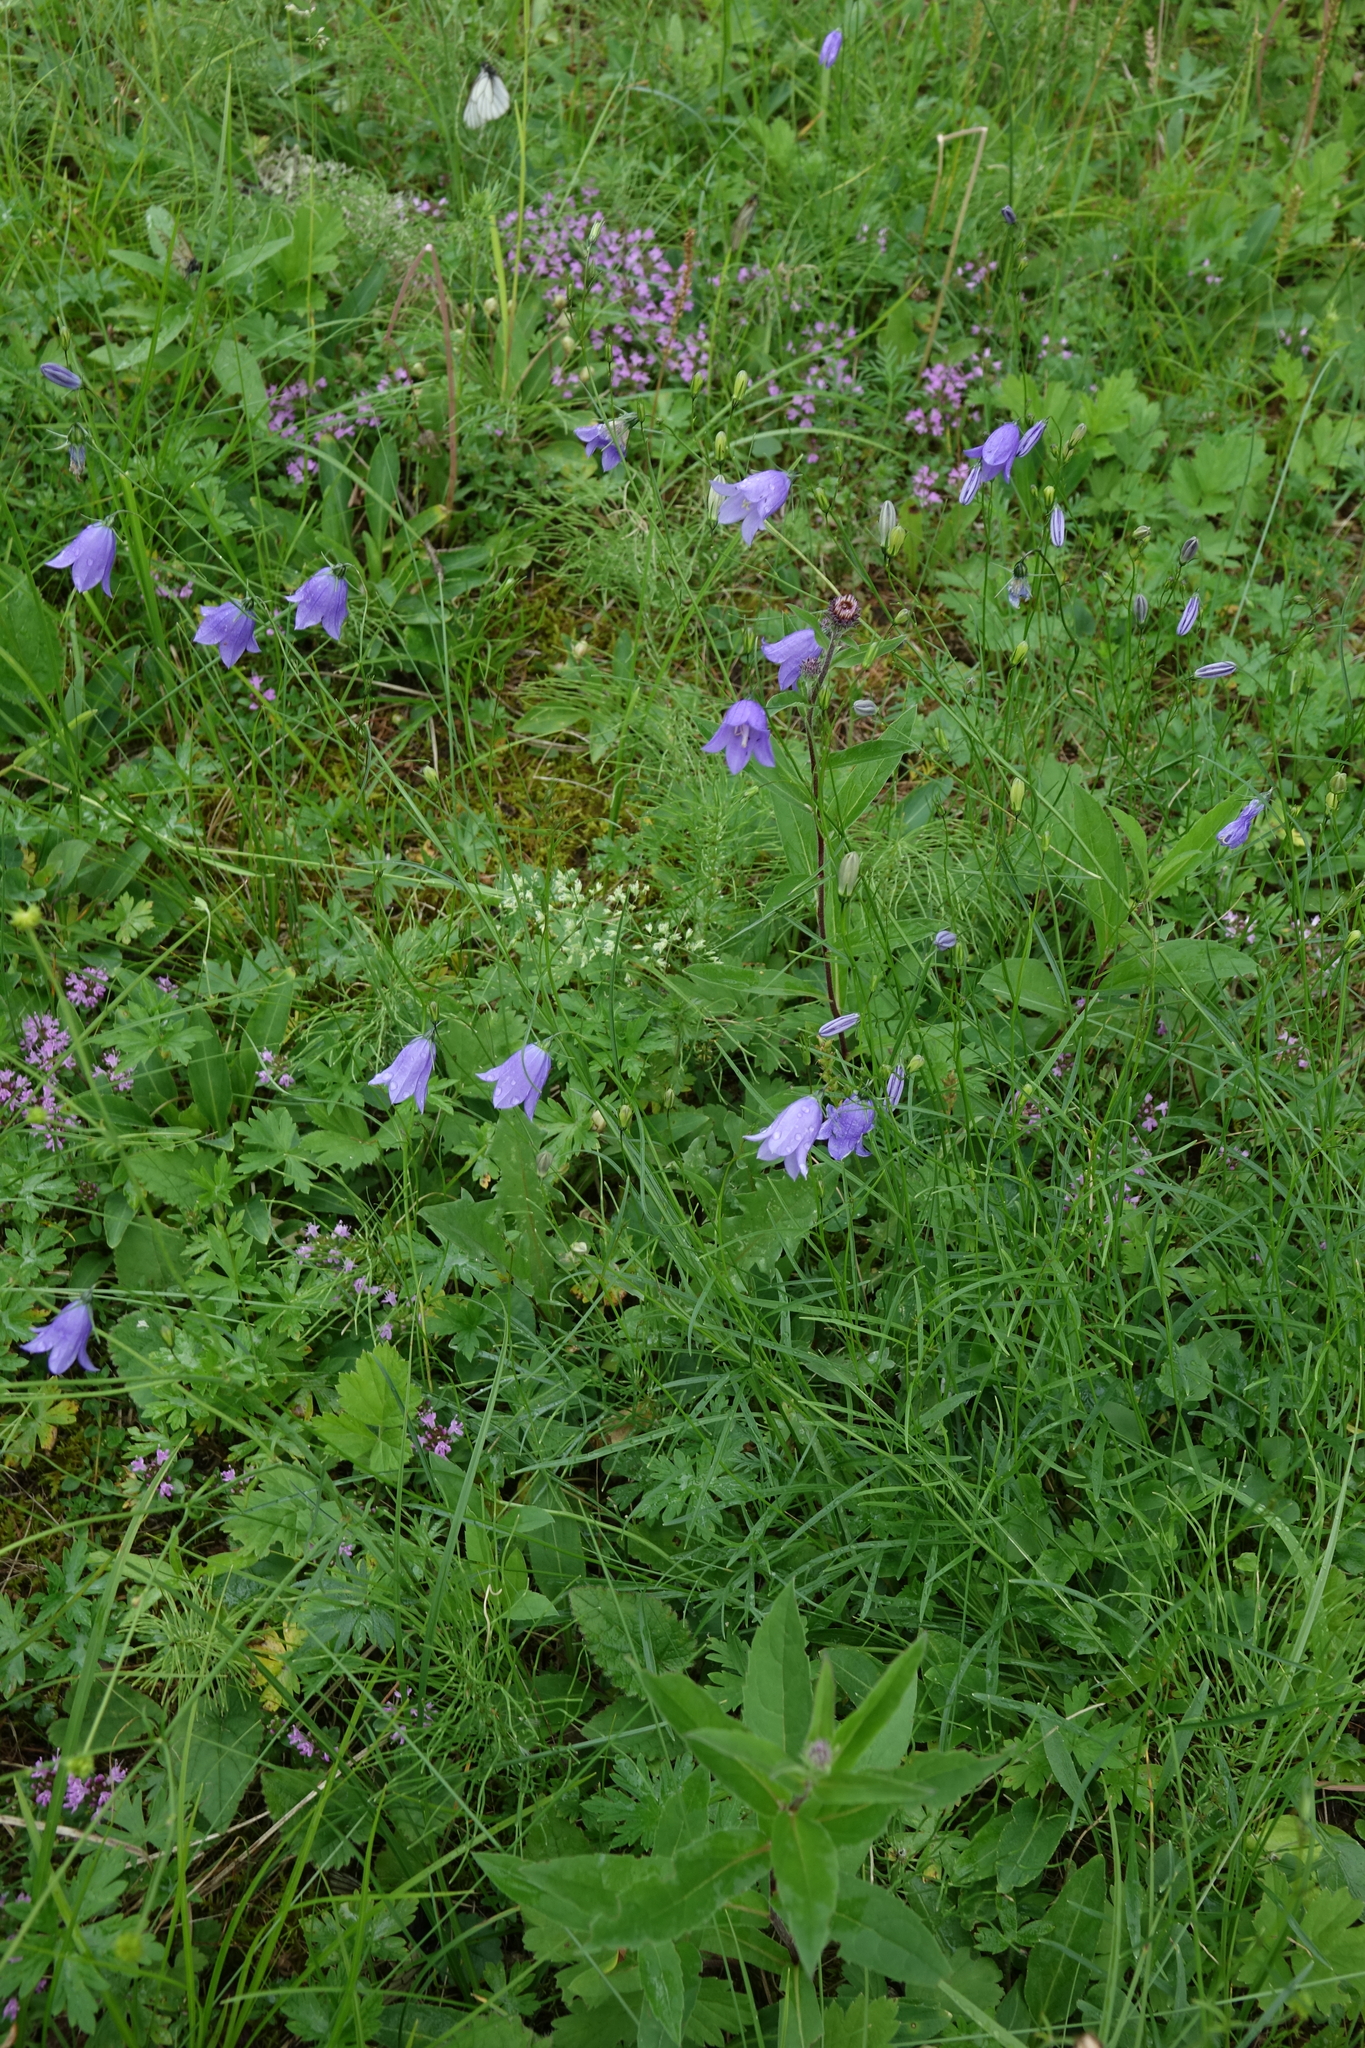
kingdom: Plantae
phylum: Tracheophyta
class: Magnoliopsida
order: Asterales
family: Campanulaceae
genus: Campanula
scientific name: Campanula rotundifolia
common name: Harebell
